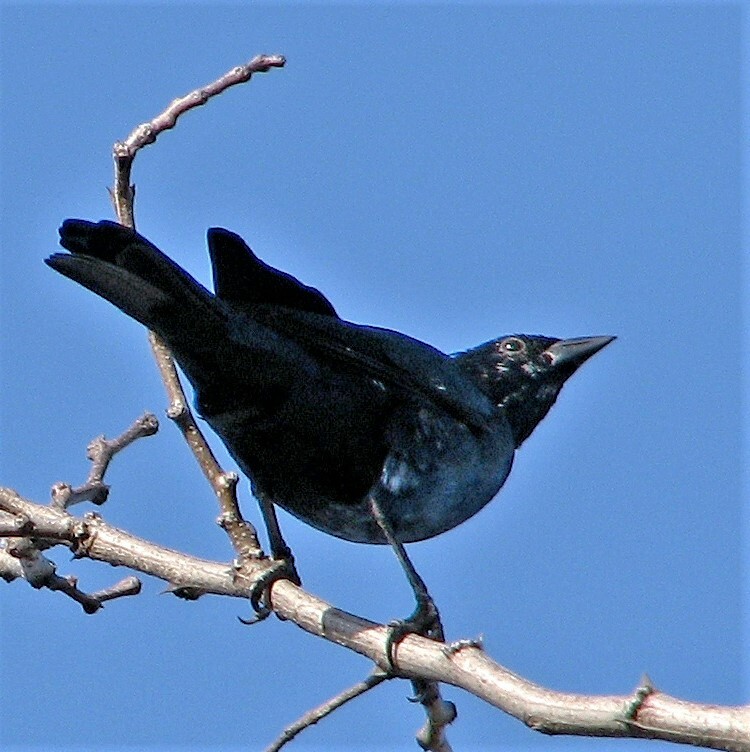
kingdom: Animalia
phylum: Chordata
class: Aves
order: Passeriformes
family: Icteridae
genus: Molothrus
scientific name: Molothrus bonariensis
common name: Shiny cowbird
